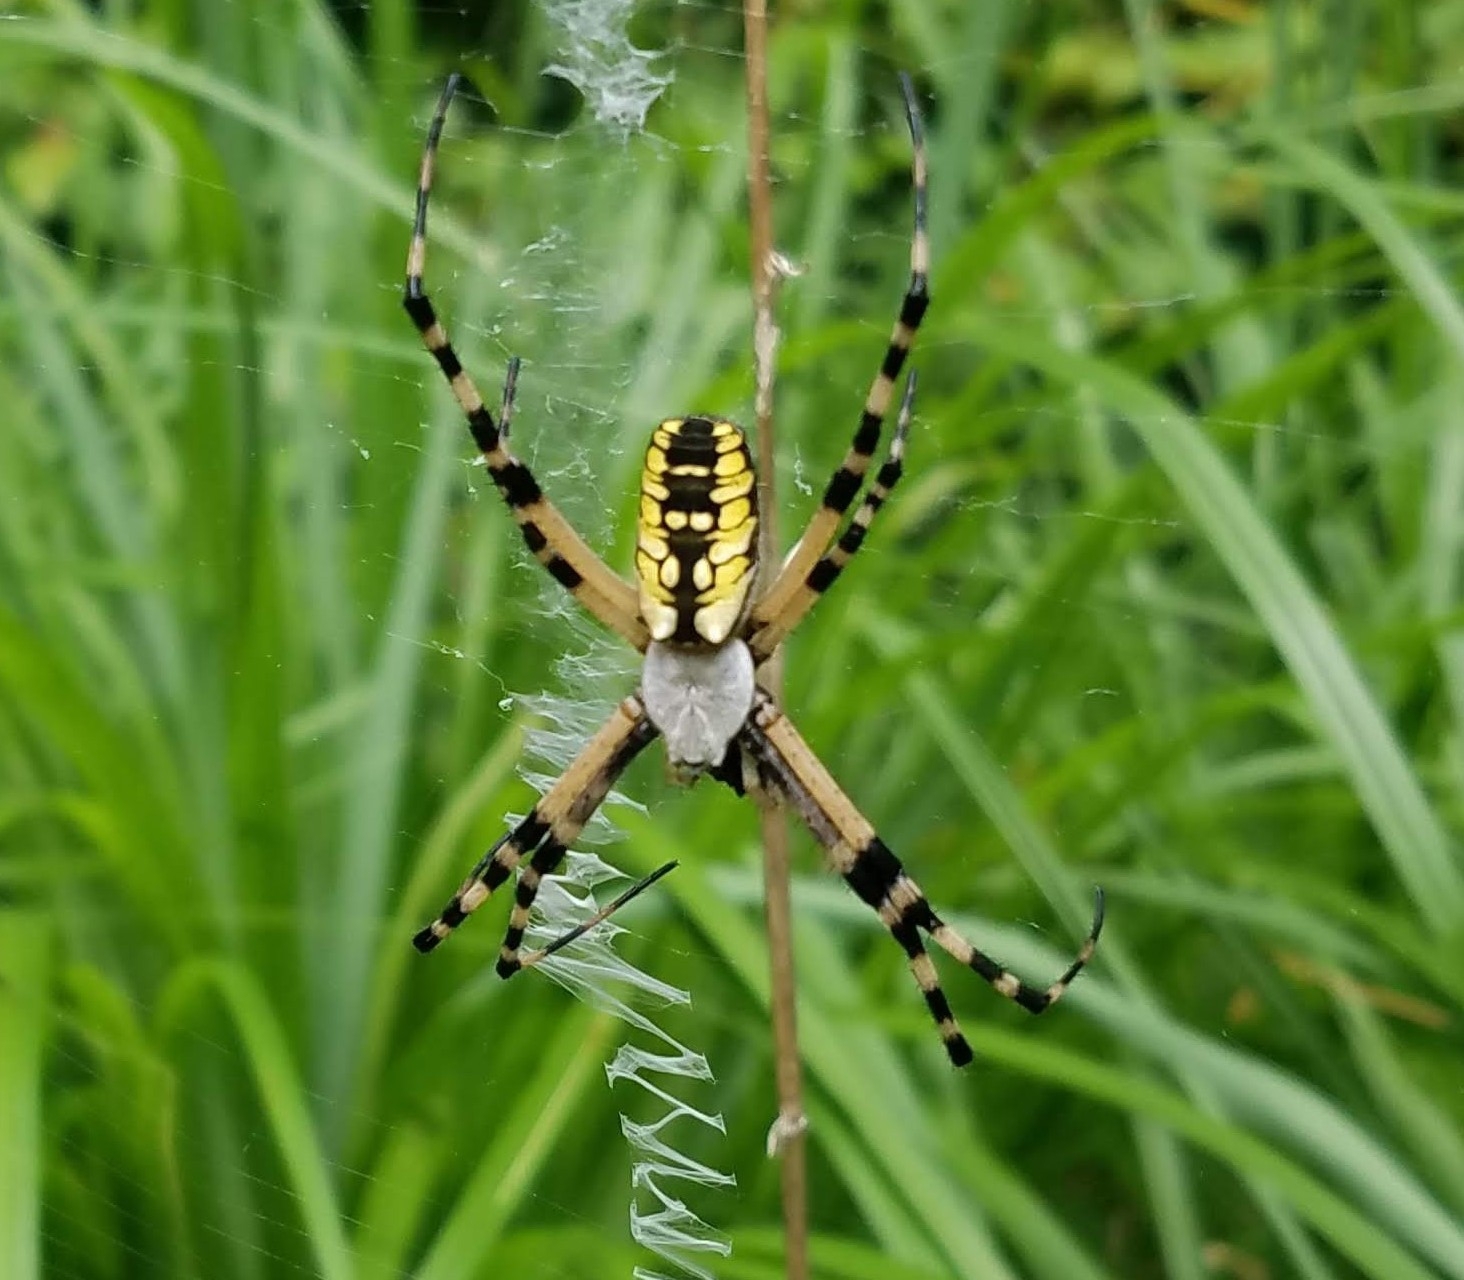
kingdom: Animalia
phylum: Arthropoda
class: Arachnida
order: Araneae
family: Araneidae
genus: Argiope
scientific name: Argiope aurantia
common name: Orb weavers
